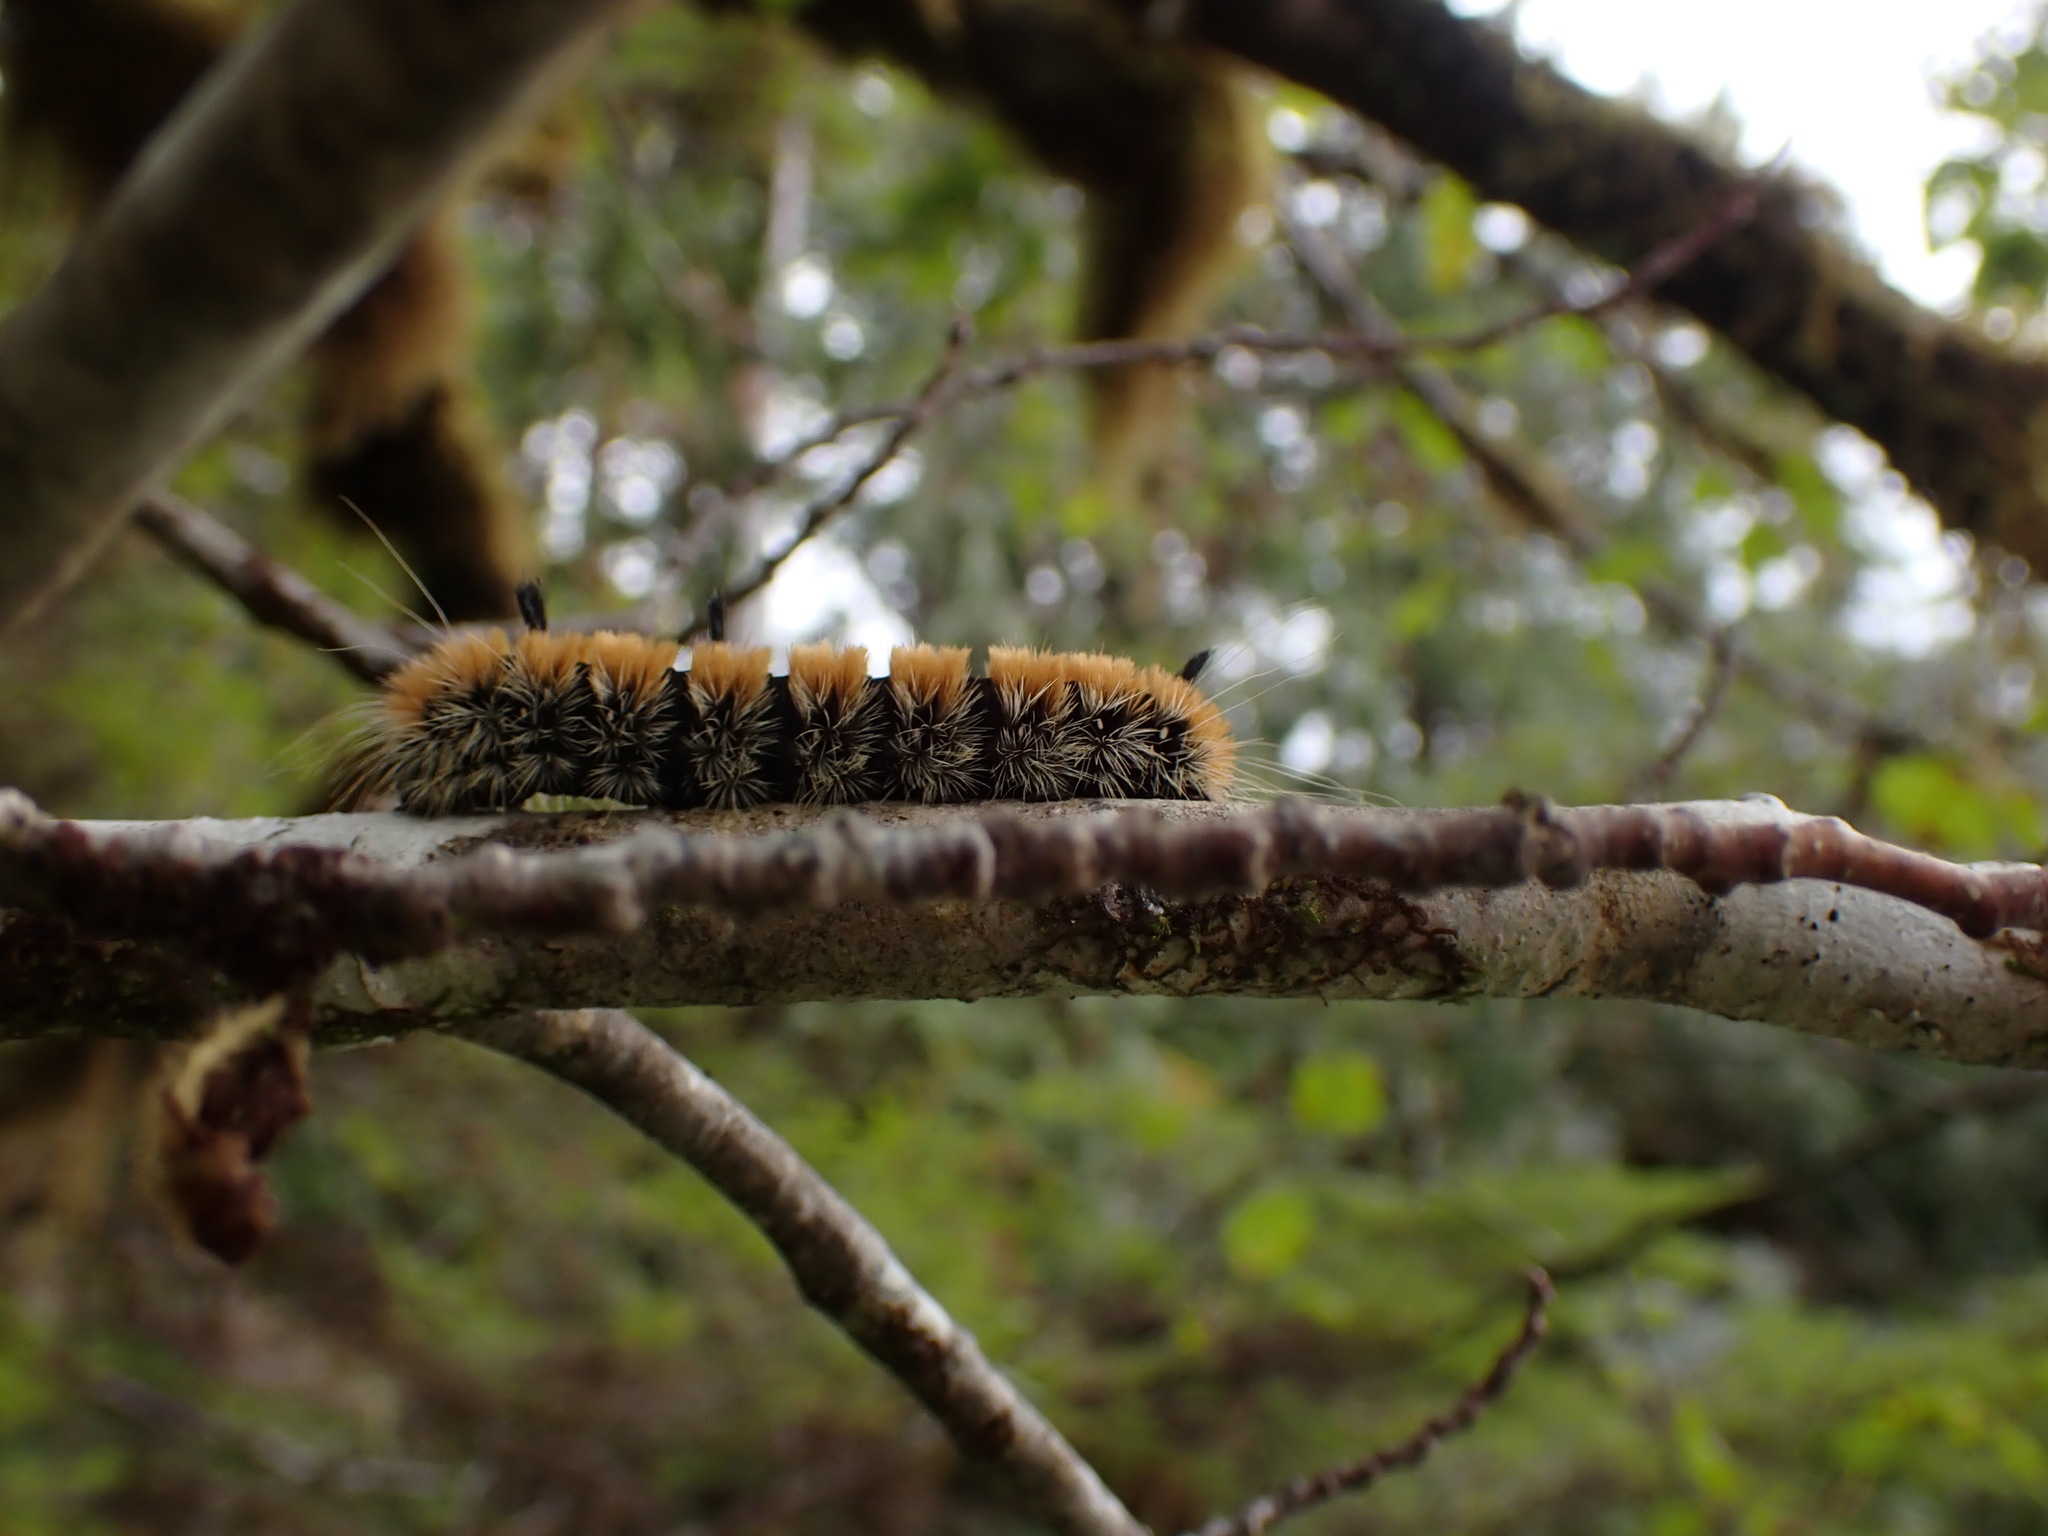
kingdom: Animalia
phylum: Arthropoda
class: Insecta
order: Lepidoptera
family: Noctuidae
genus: Acronicta
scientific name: Acronicta insita
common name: Large gray dagger
